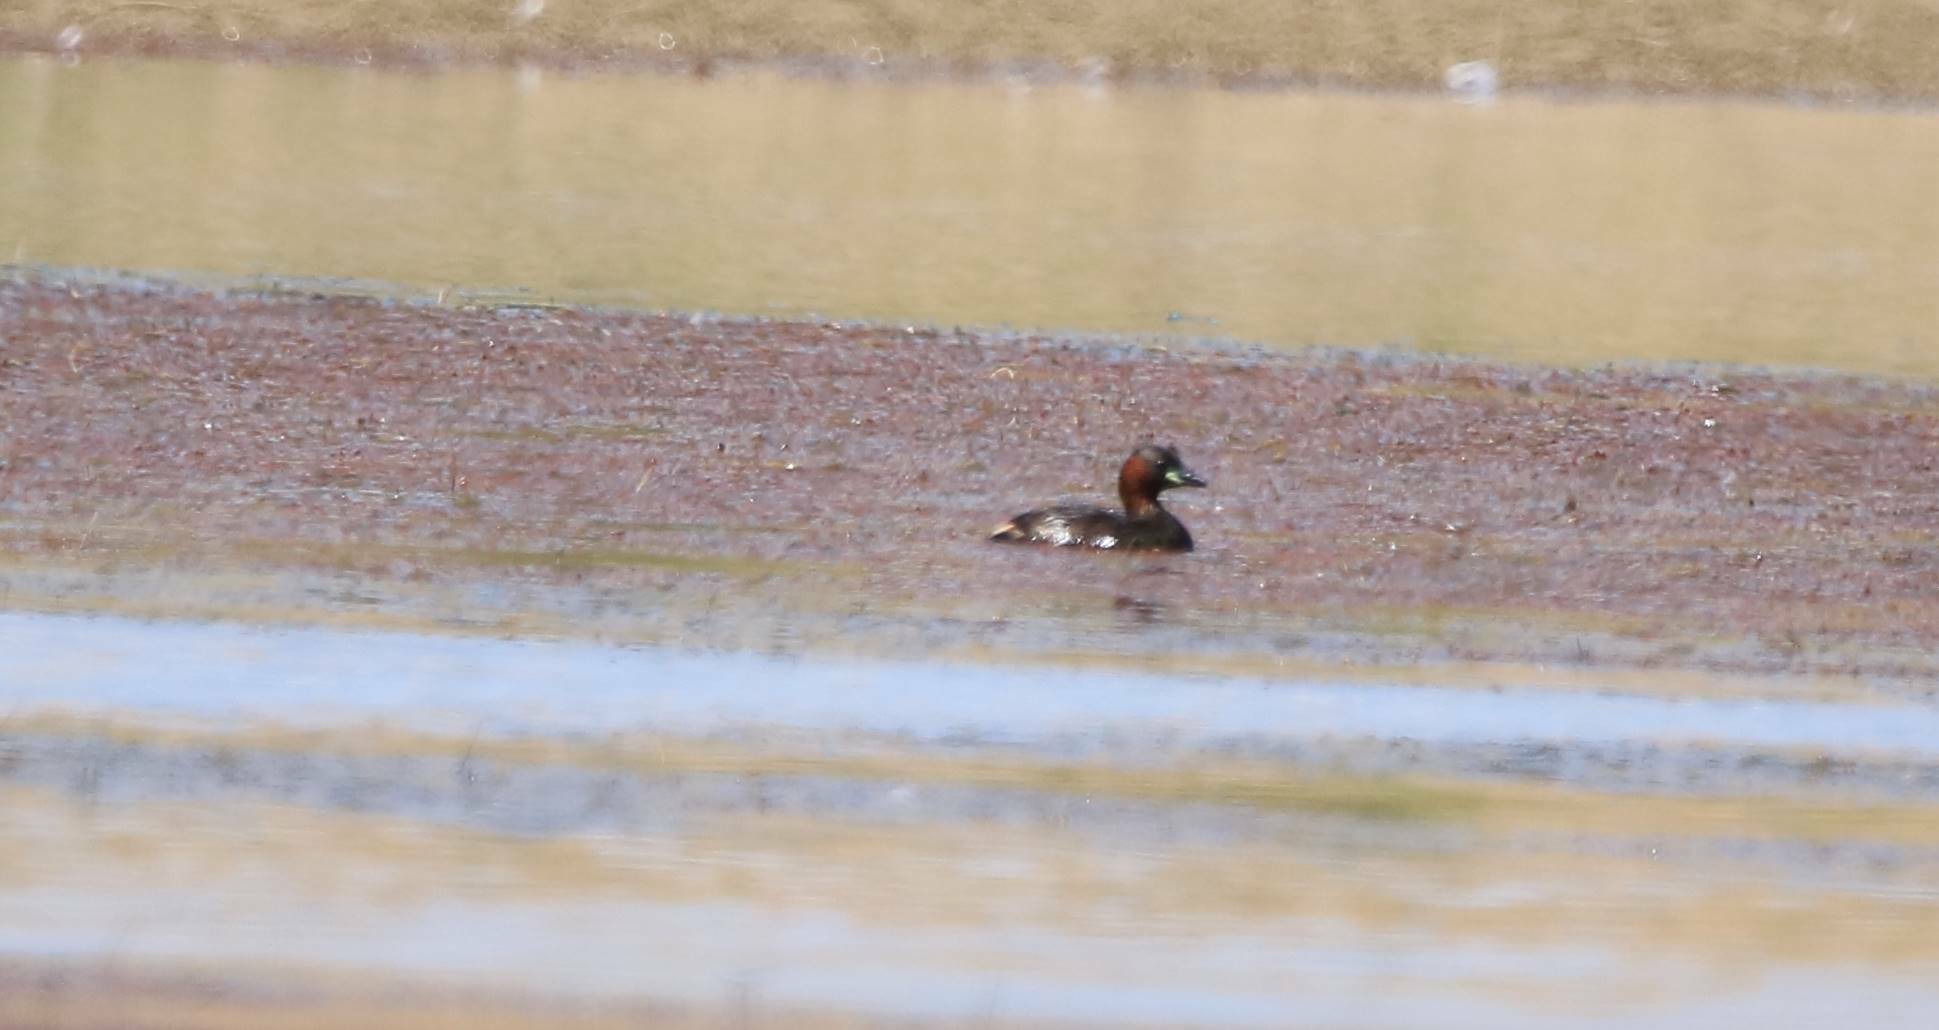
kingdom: Animalia
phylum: Chordata
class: Aves
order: Podicipediformes
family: Podicipedidae
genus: Tachybaptus
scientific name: Tachybaptus ruficollis
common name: Little grebe
